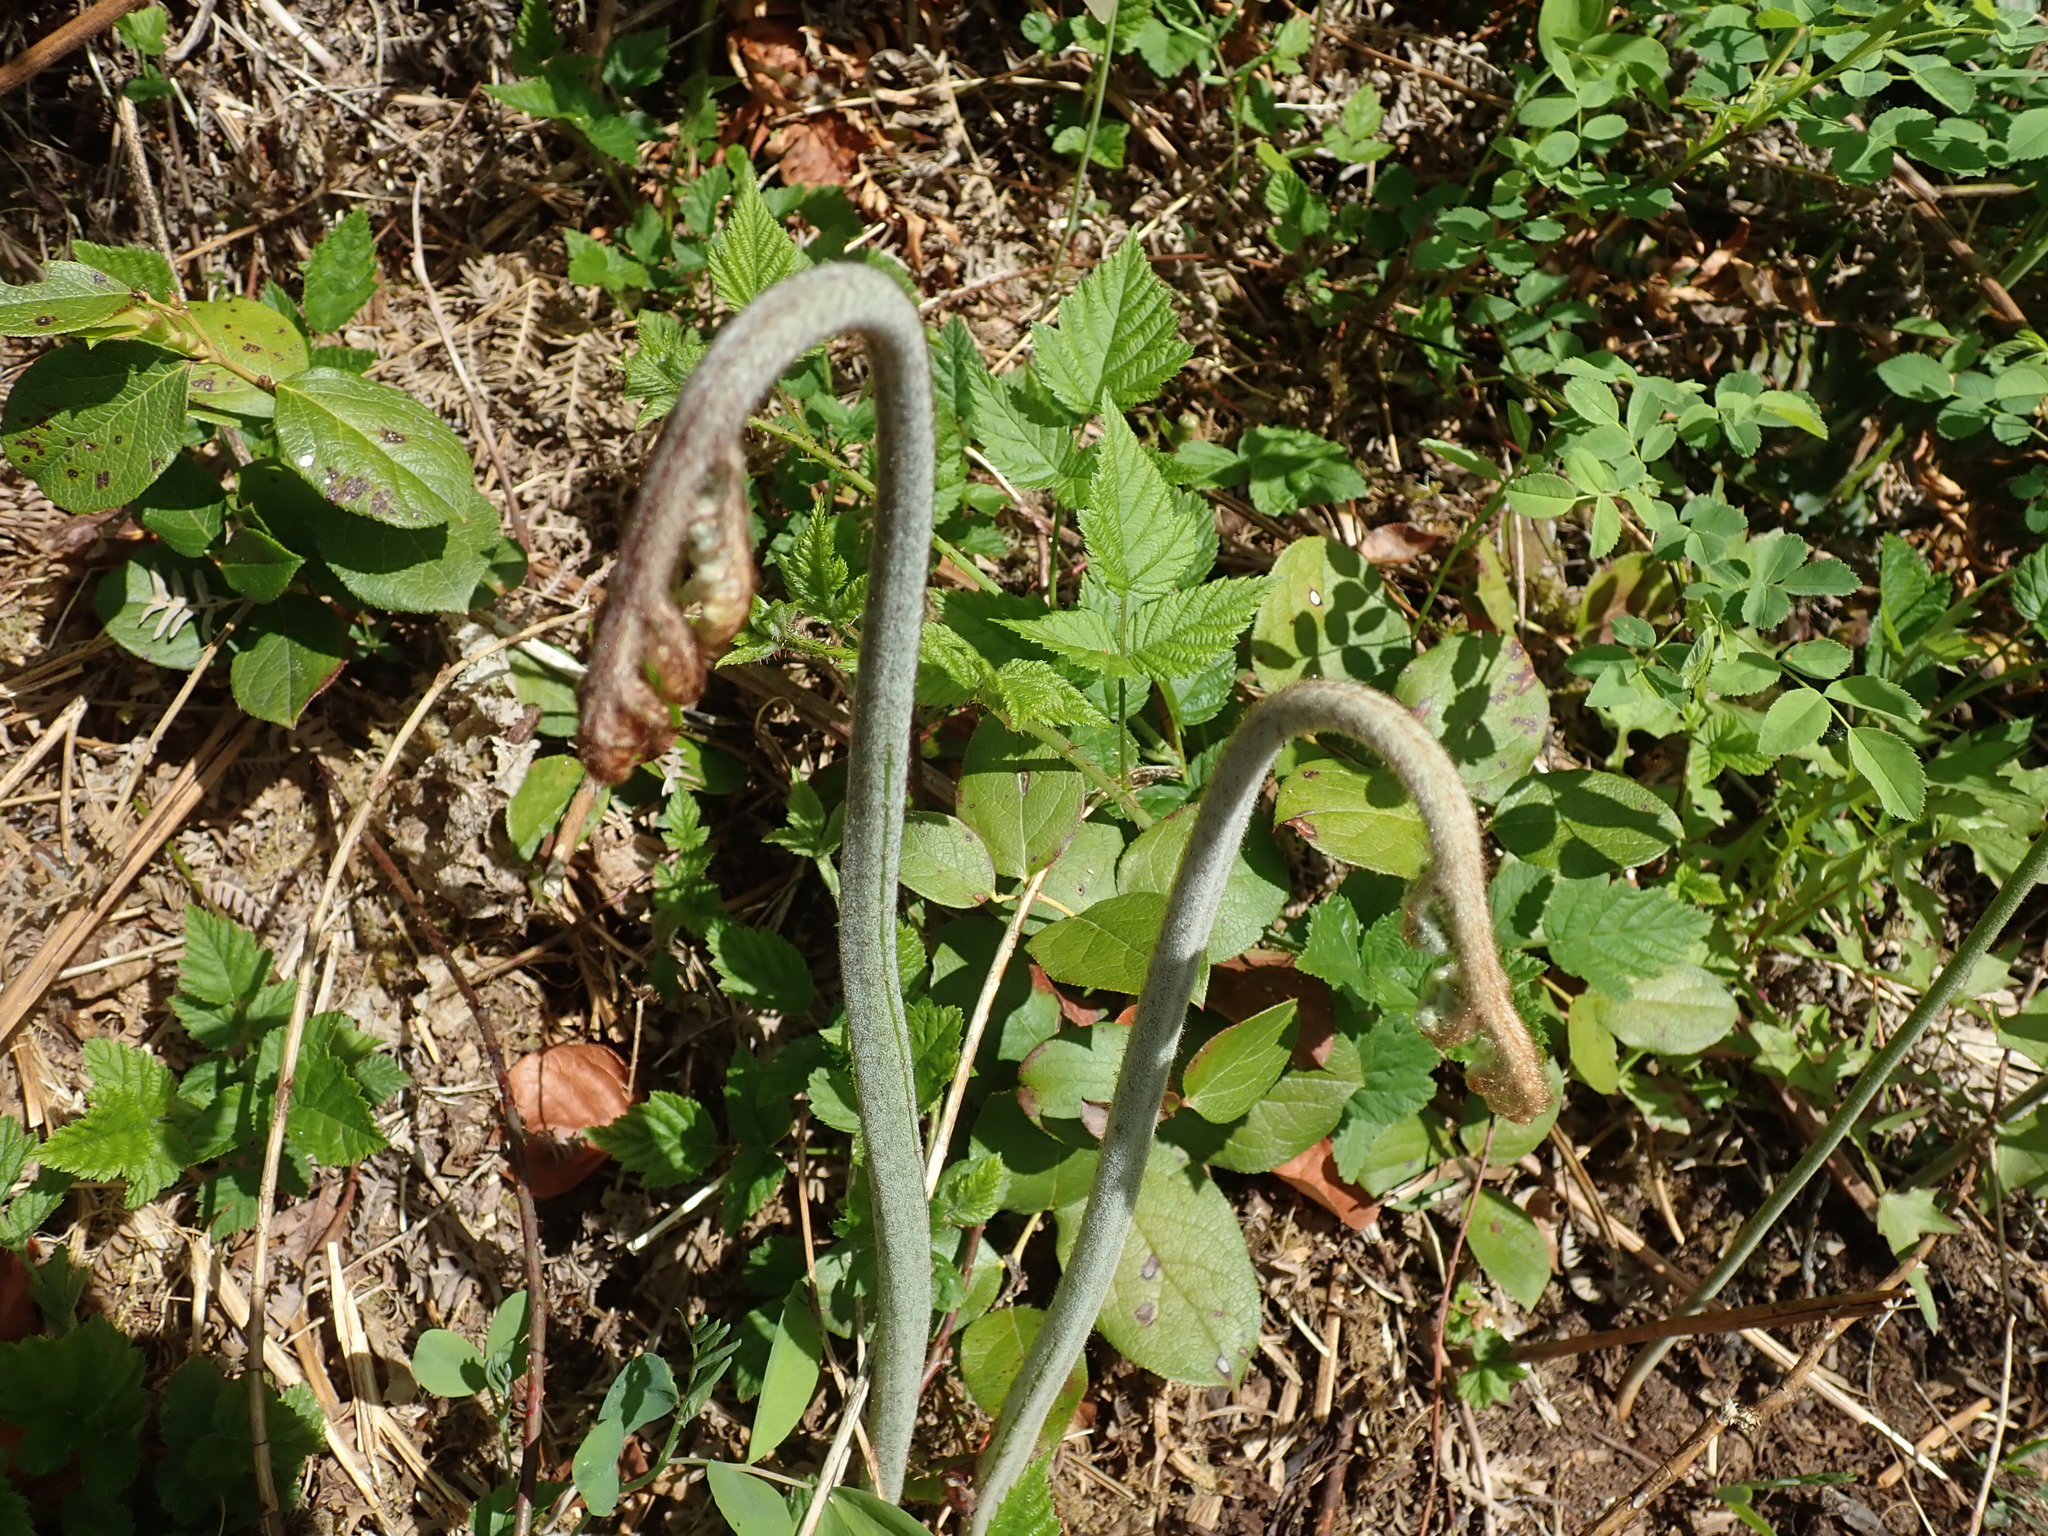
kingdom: Plantae
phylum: Tracheophyta
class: Polypodiopsida
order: Polypodiales
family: Dennstaedtiaceae
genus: Pteridium
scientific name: Pteridium aquilinum
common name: Bracken
